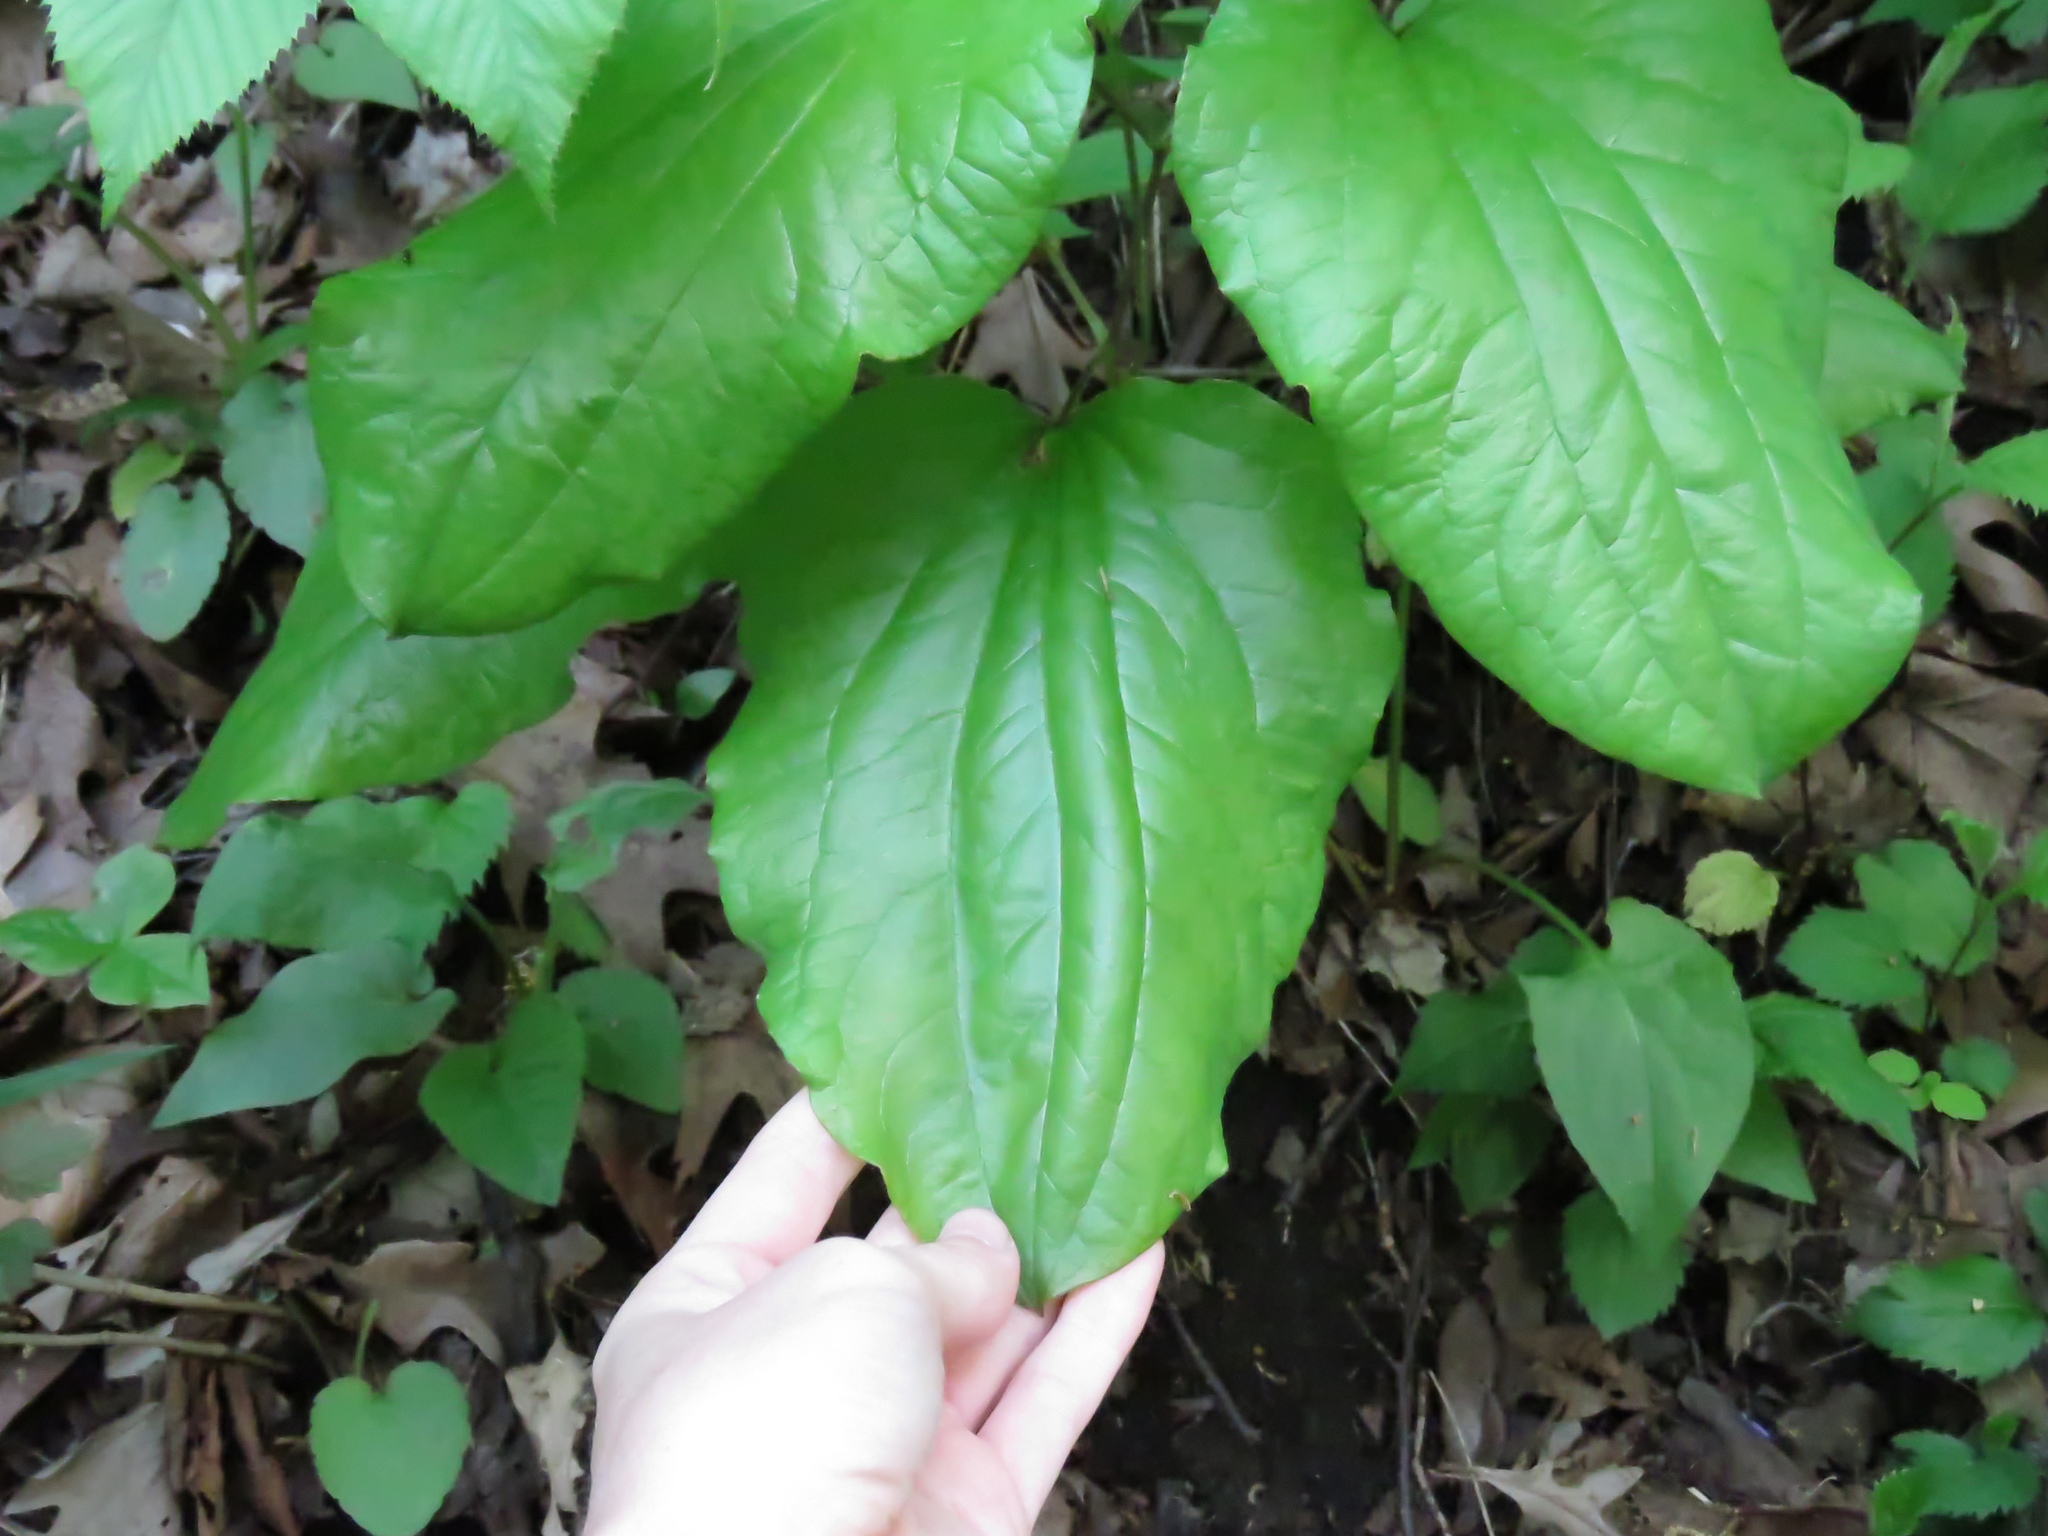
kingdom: Plantae
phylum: Tracheophyta
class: Liliopsida
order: Liliales
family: Smilacaceae
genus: Smilax
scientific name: Smilax illinoensis
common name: Illinois carrionflower
